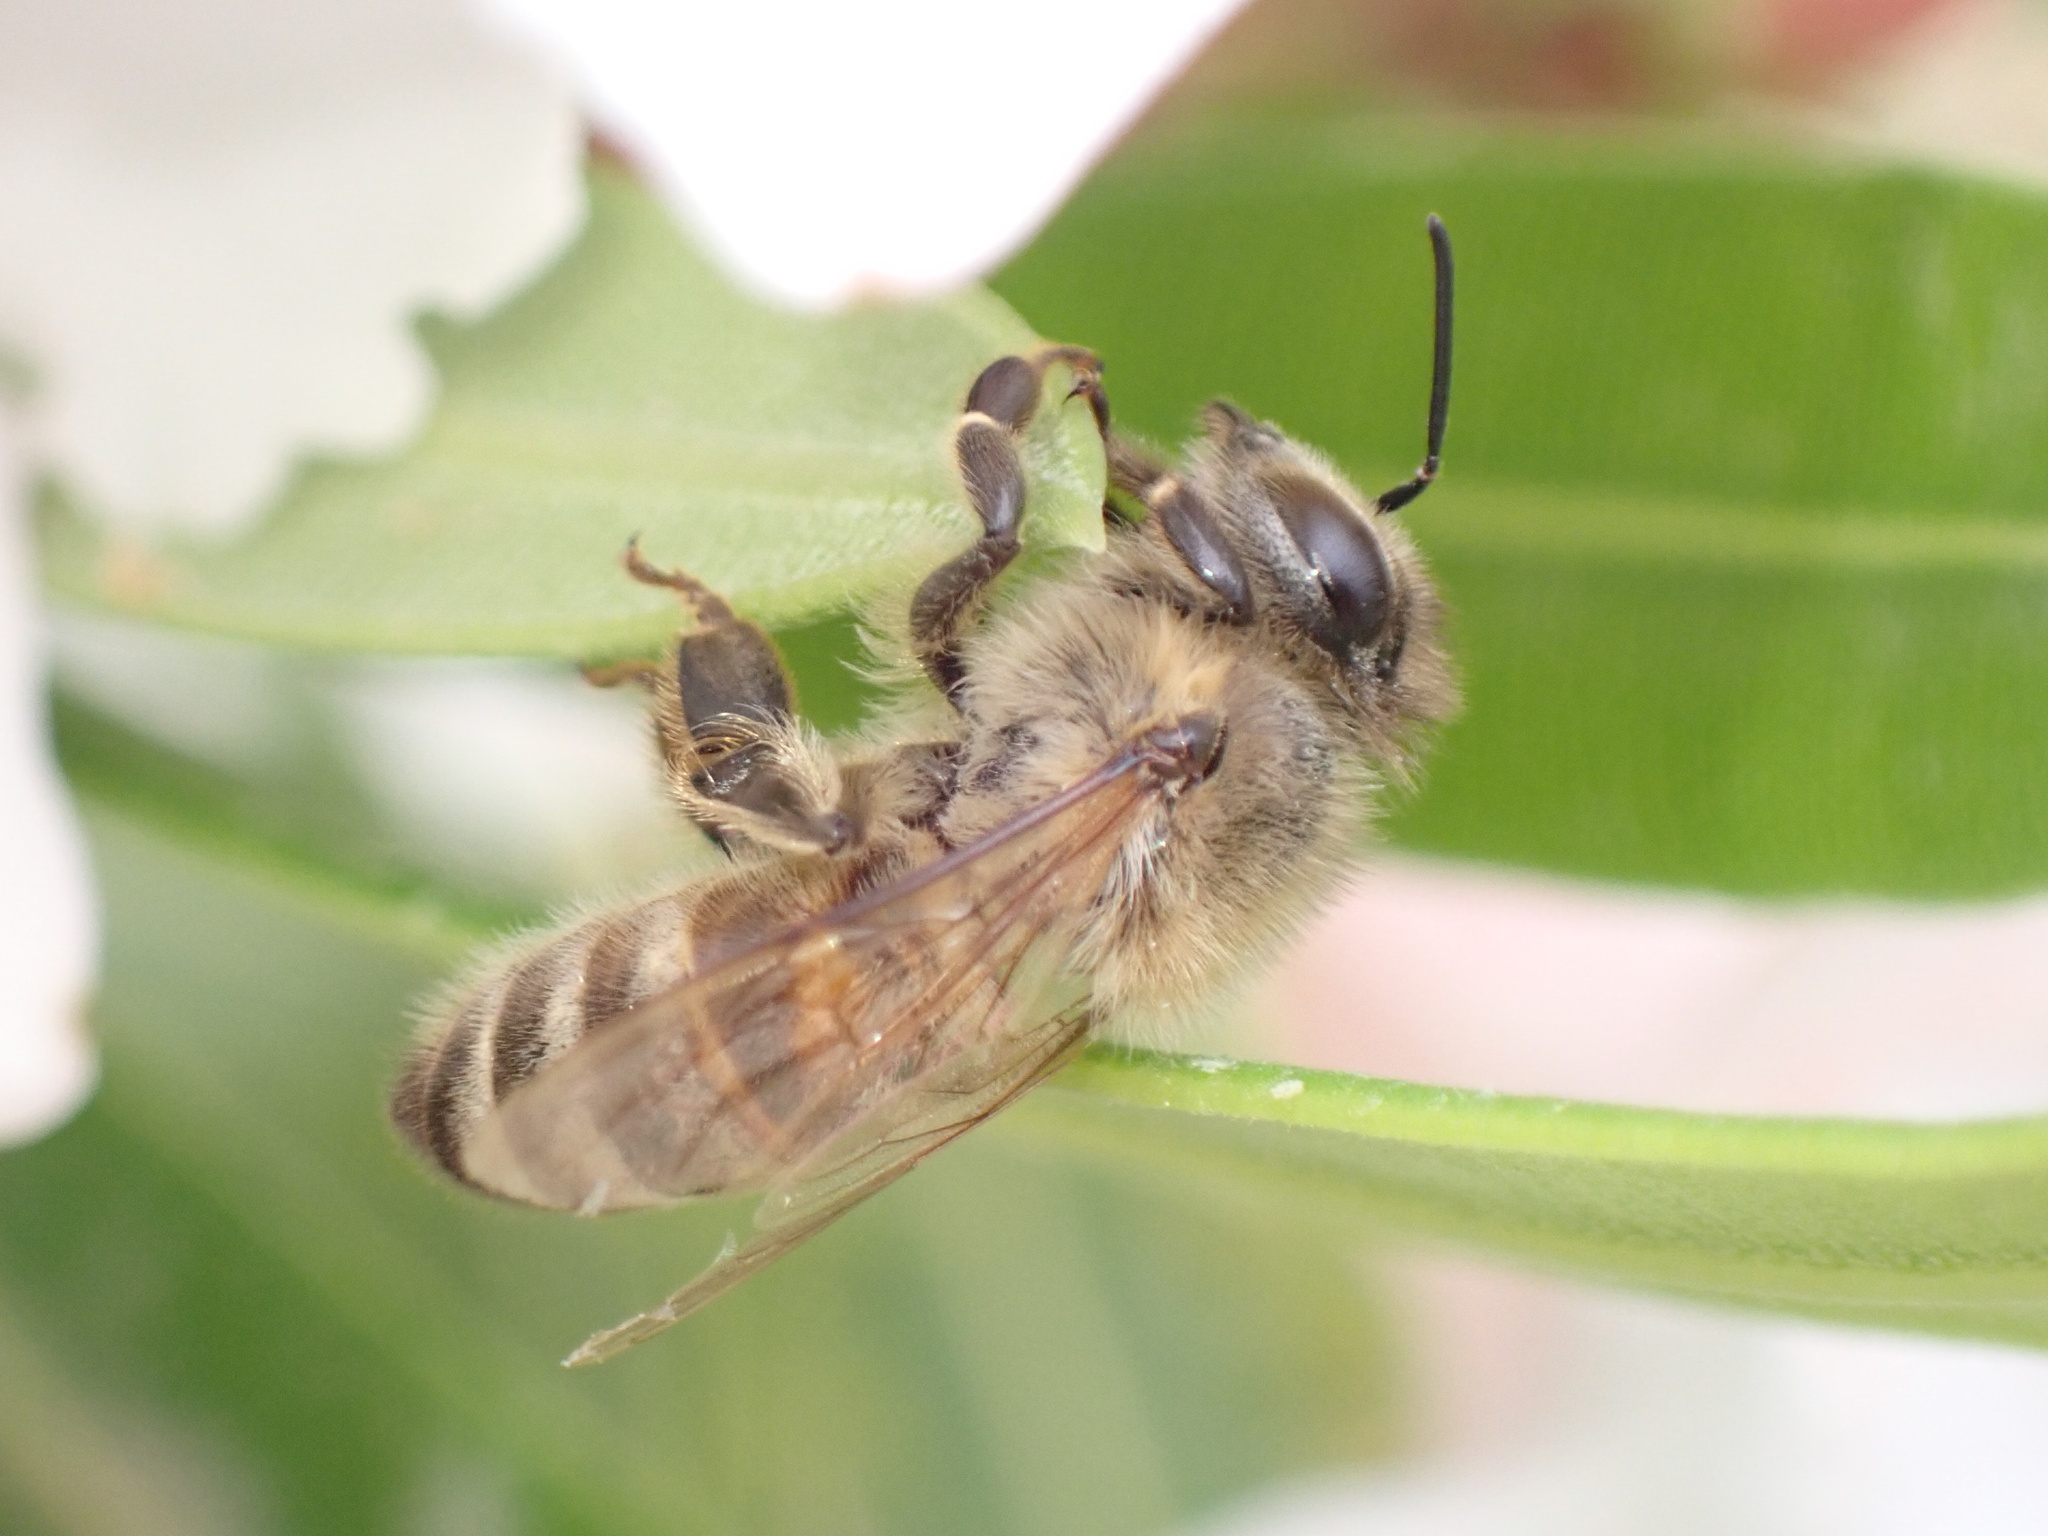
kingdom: Animalia
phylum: Arthropoda
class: Insecta
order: Hymenoptera
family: Apidae
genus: Apis
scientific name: Apis mellifera
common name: Honey bee
